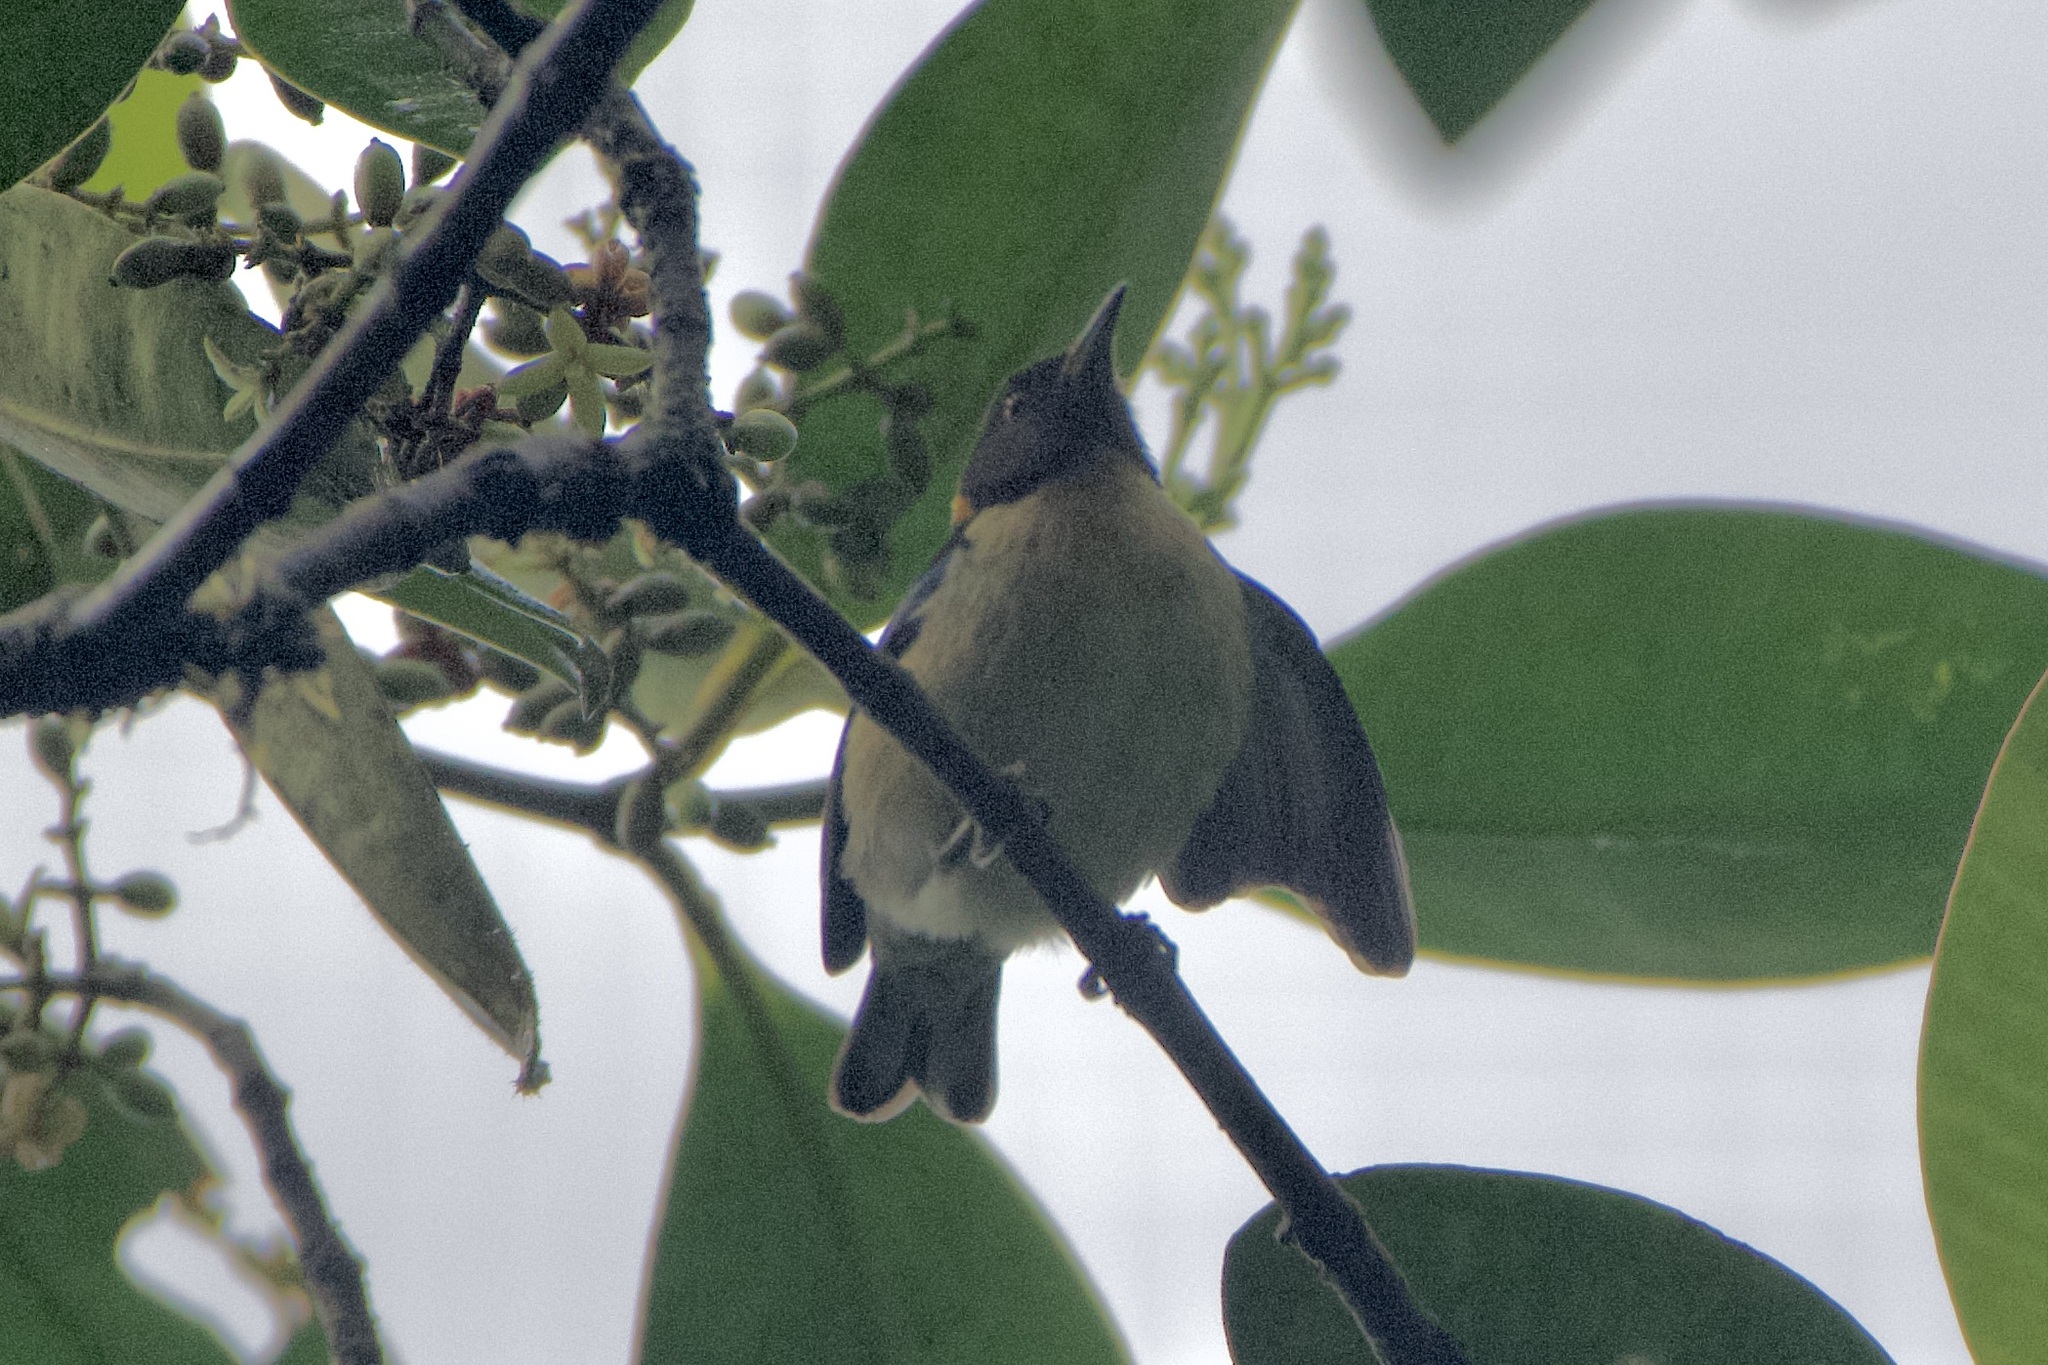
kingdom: Animalia
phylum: Chordata
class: Aves
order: Passeriformes
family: Thraupidae
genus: Iridophanes
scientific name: Iridophanes pulcherrimus
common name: Golden-collared honeycreeper
